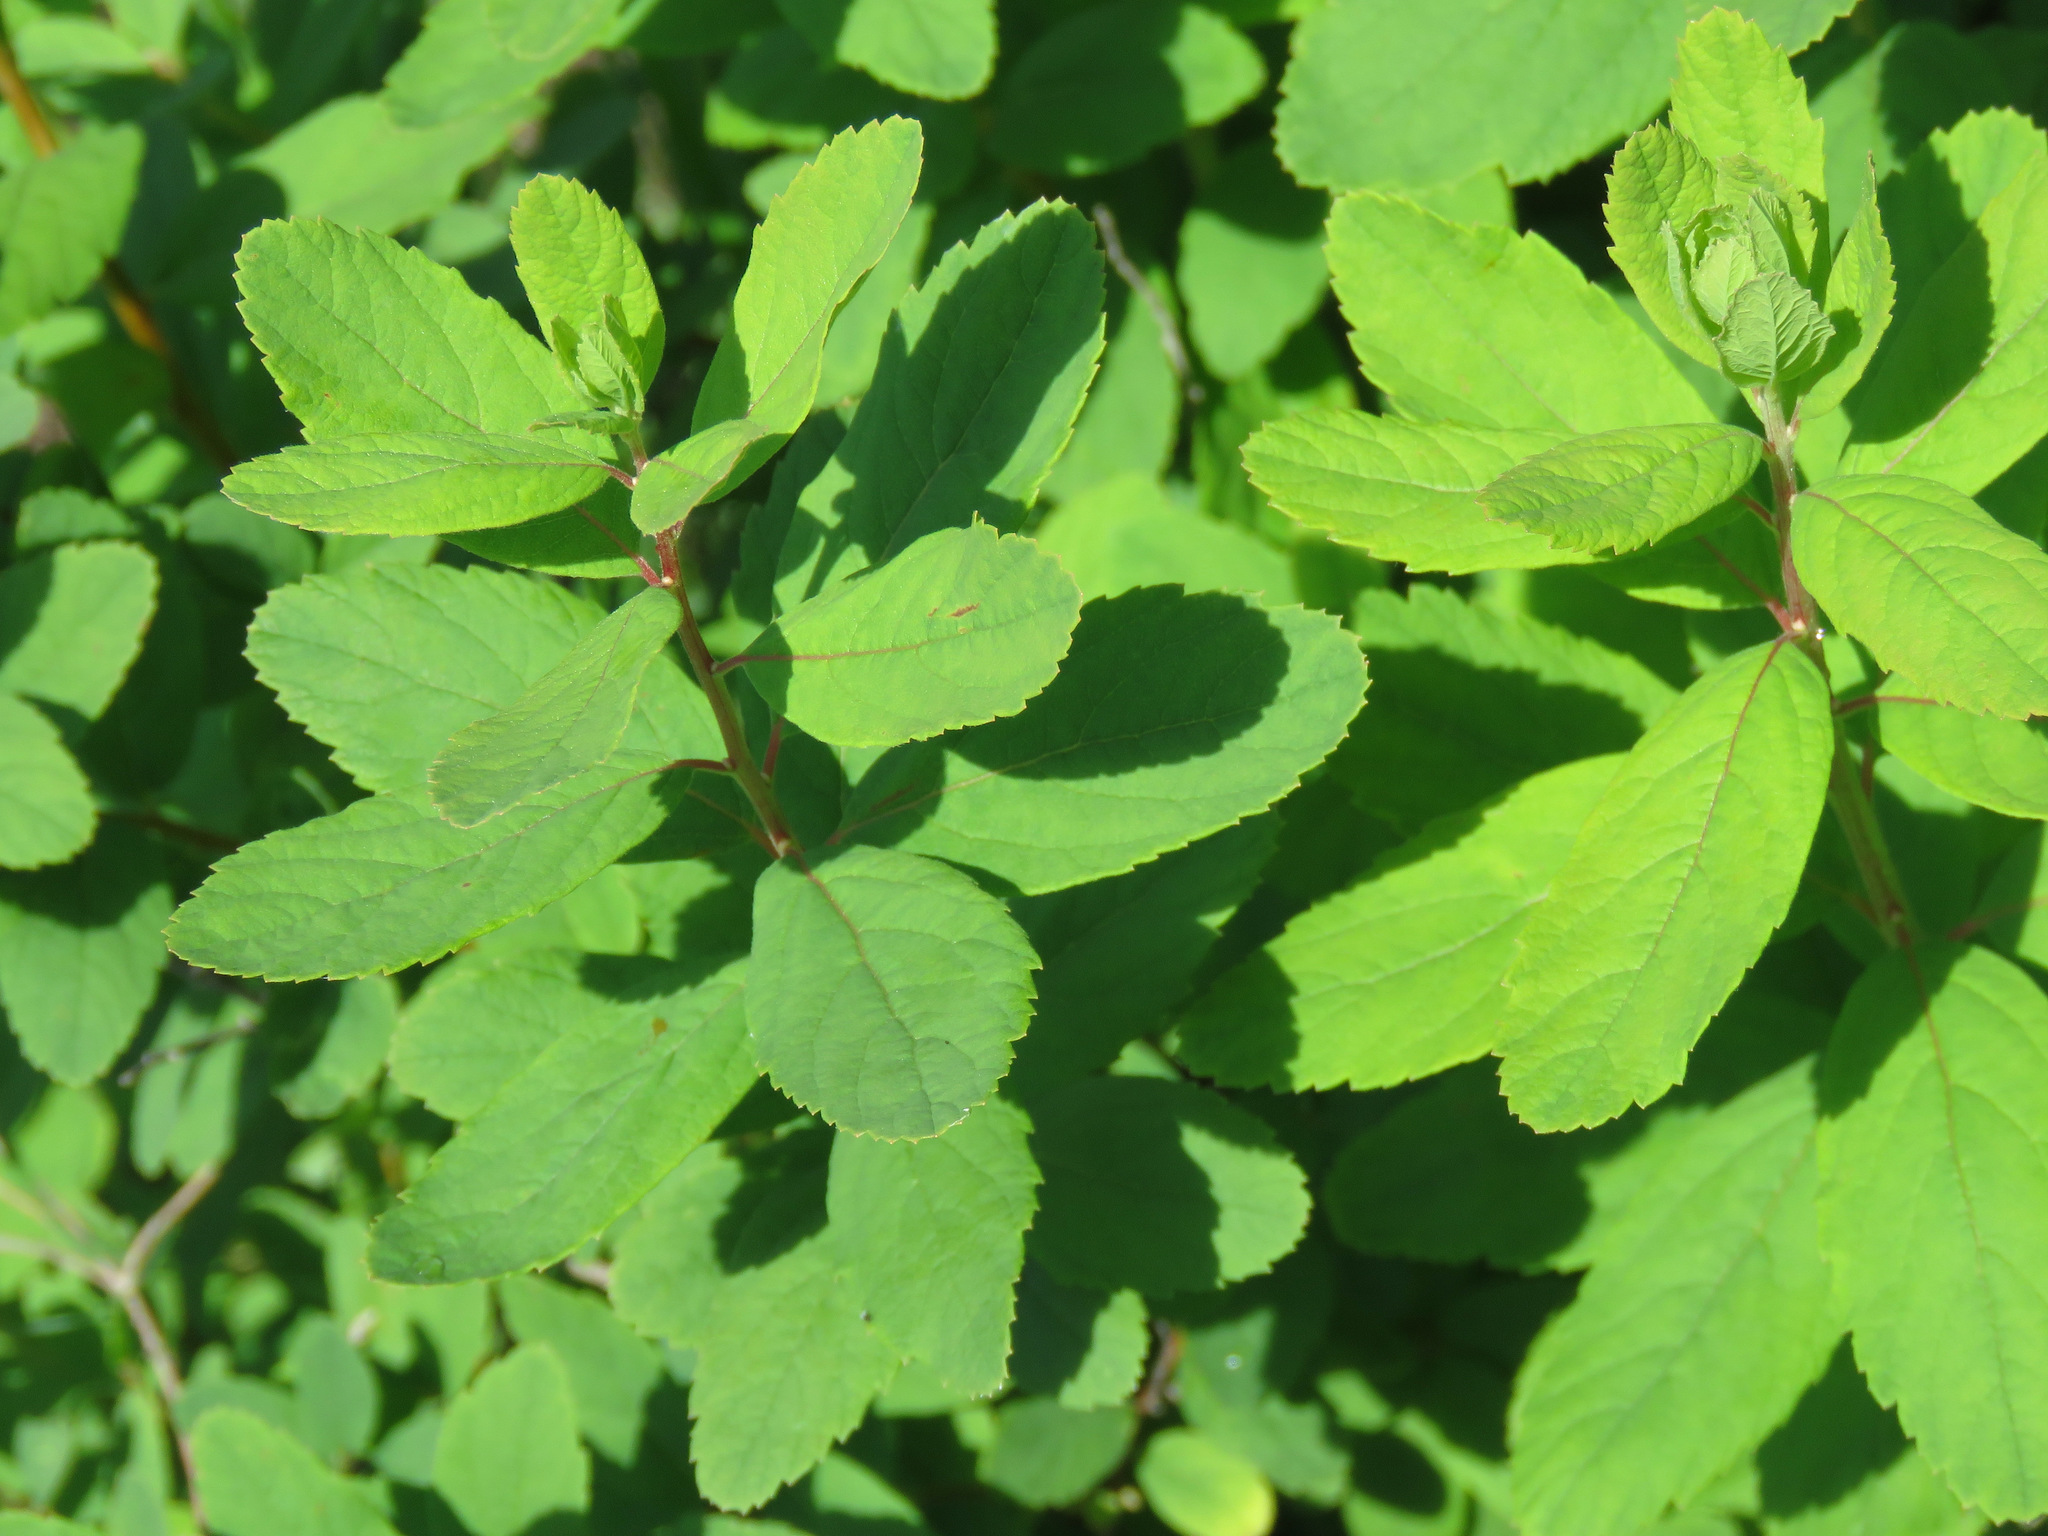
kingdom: Plantae
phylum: Tracheophyta
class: Magnoliopsida
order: Rosales
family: Rosaceae
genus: Spiraea
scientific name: Spiraea douglasii
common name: Steeplebush
